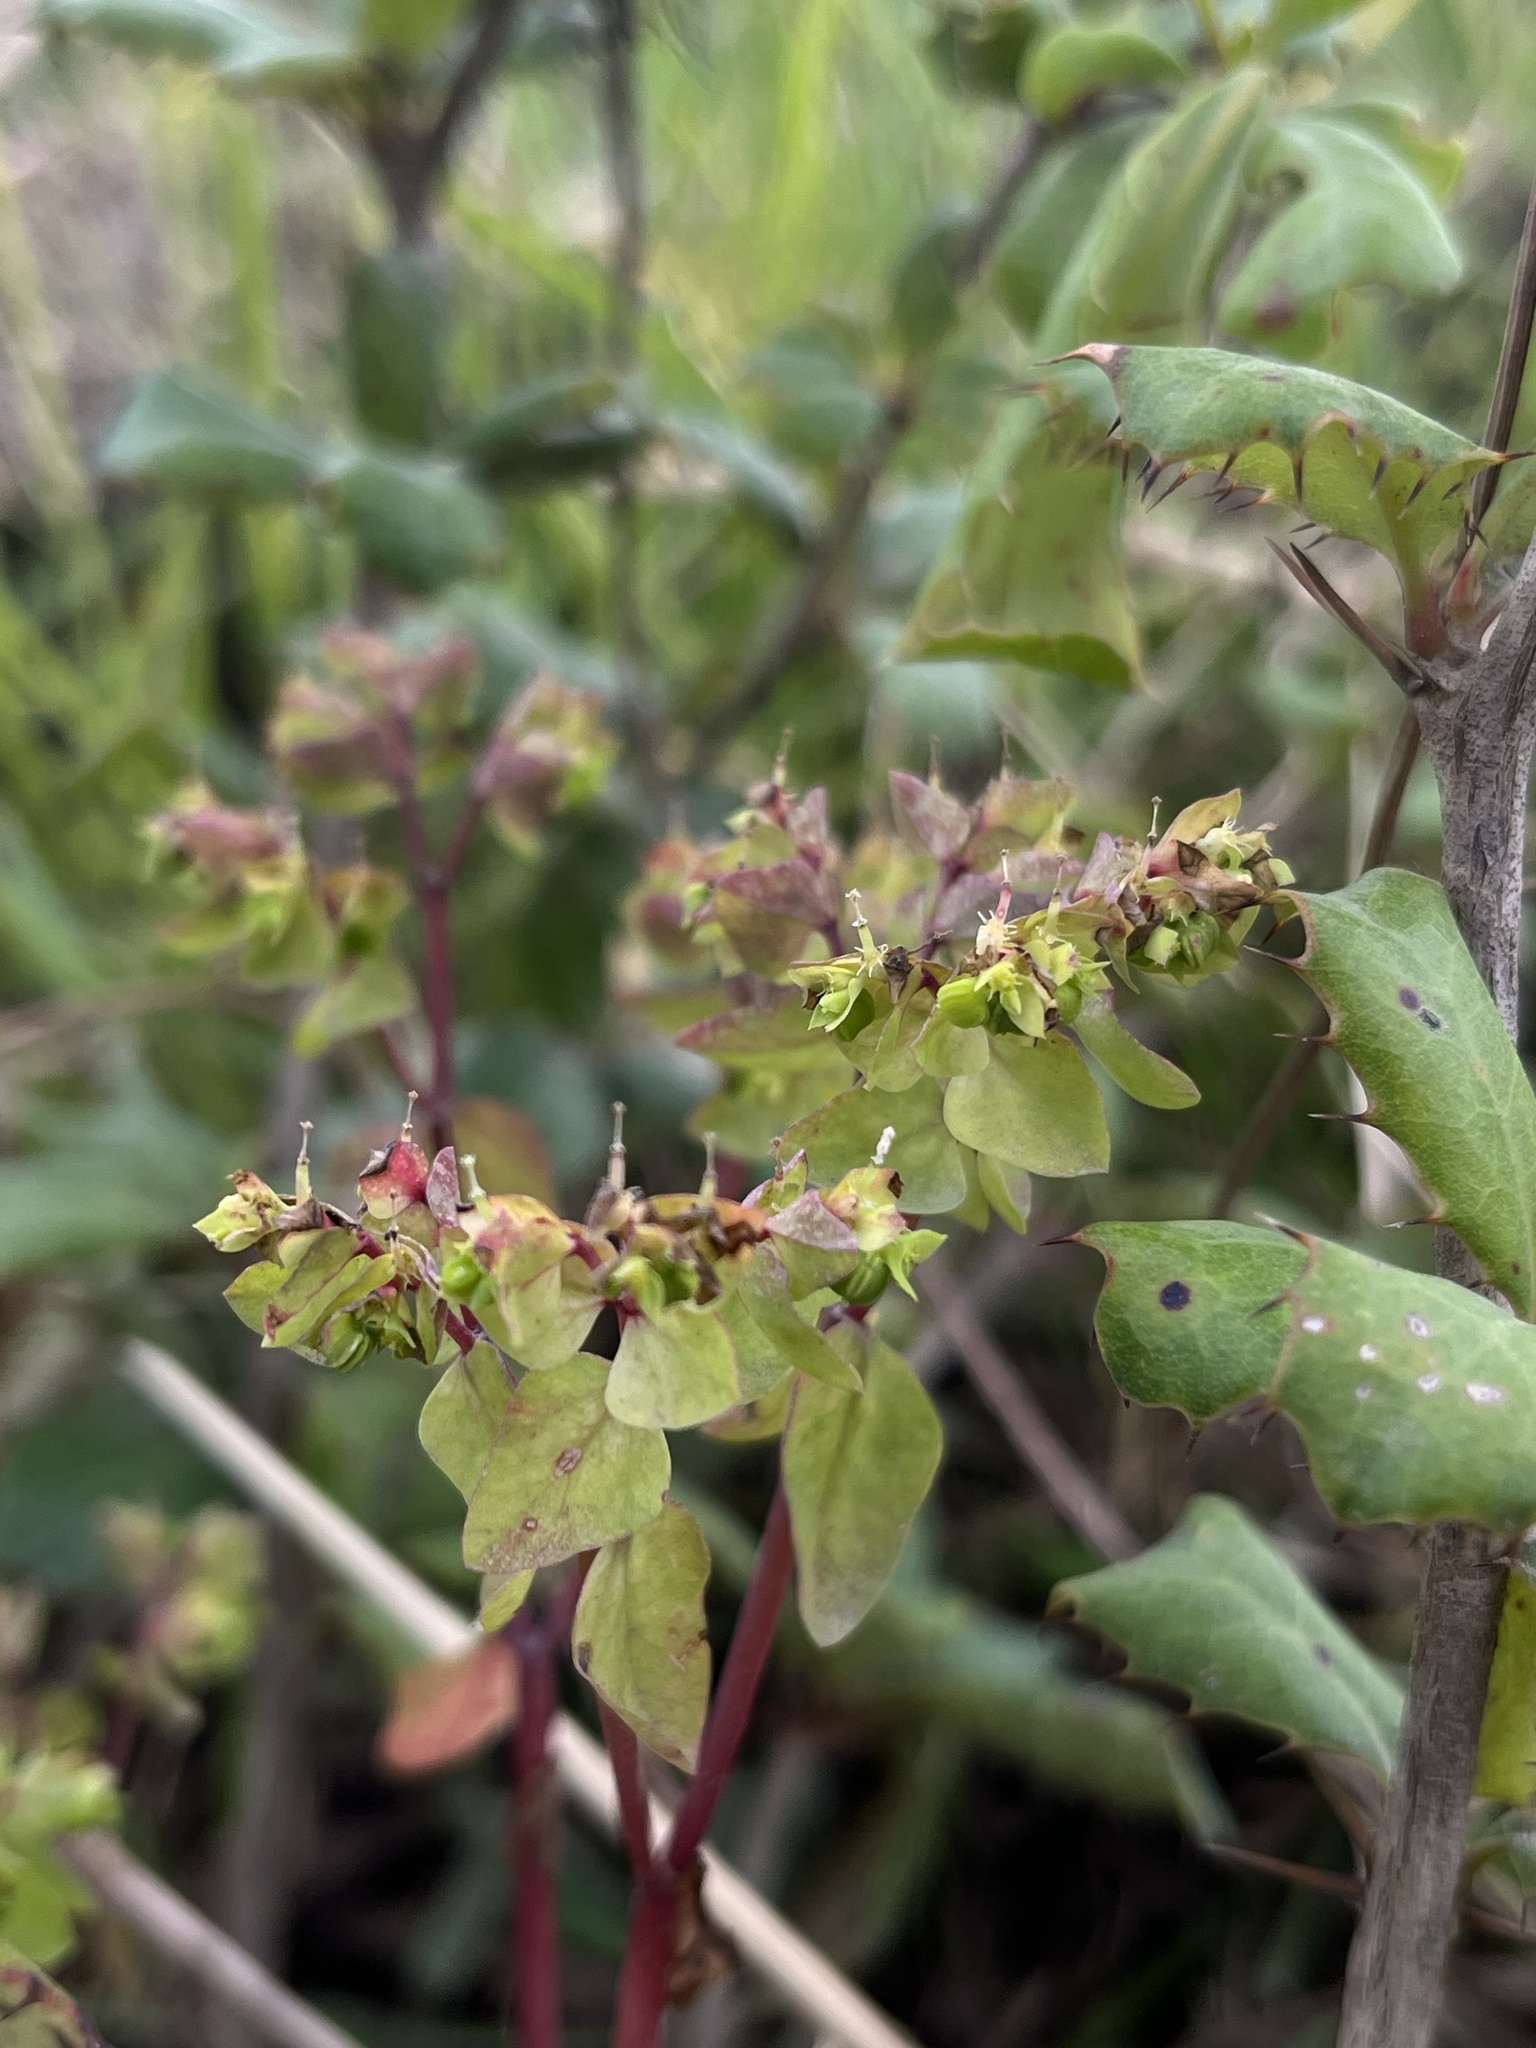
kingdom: Plantae
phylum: Tracheophyta
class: Magnoliopsida
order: Malpighiales
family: Euphorbiaceae
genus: Euphorbia
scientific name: Euphorbia peplus
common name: Petty spurge
